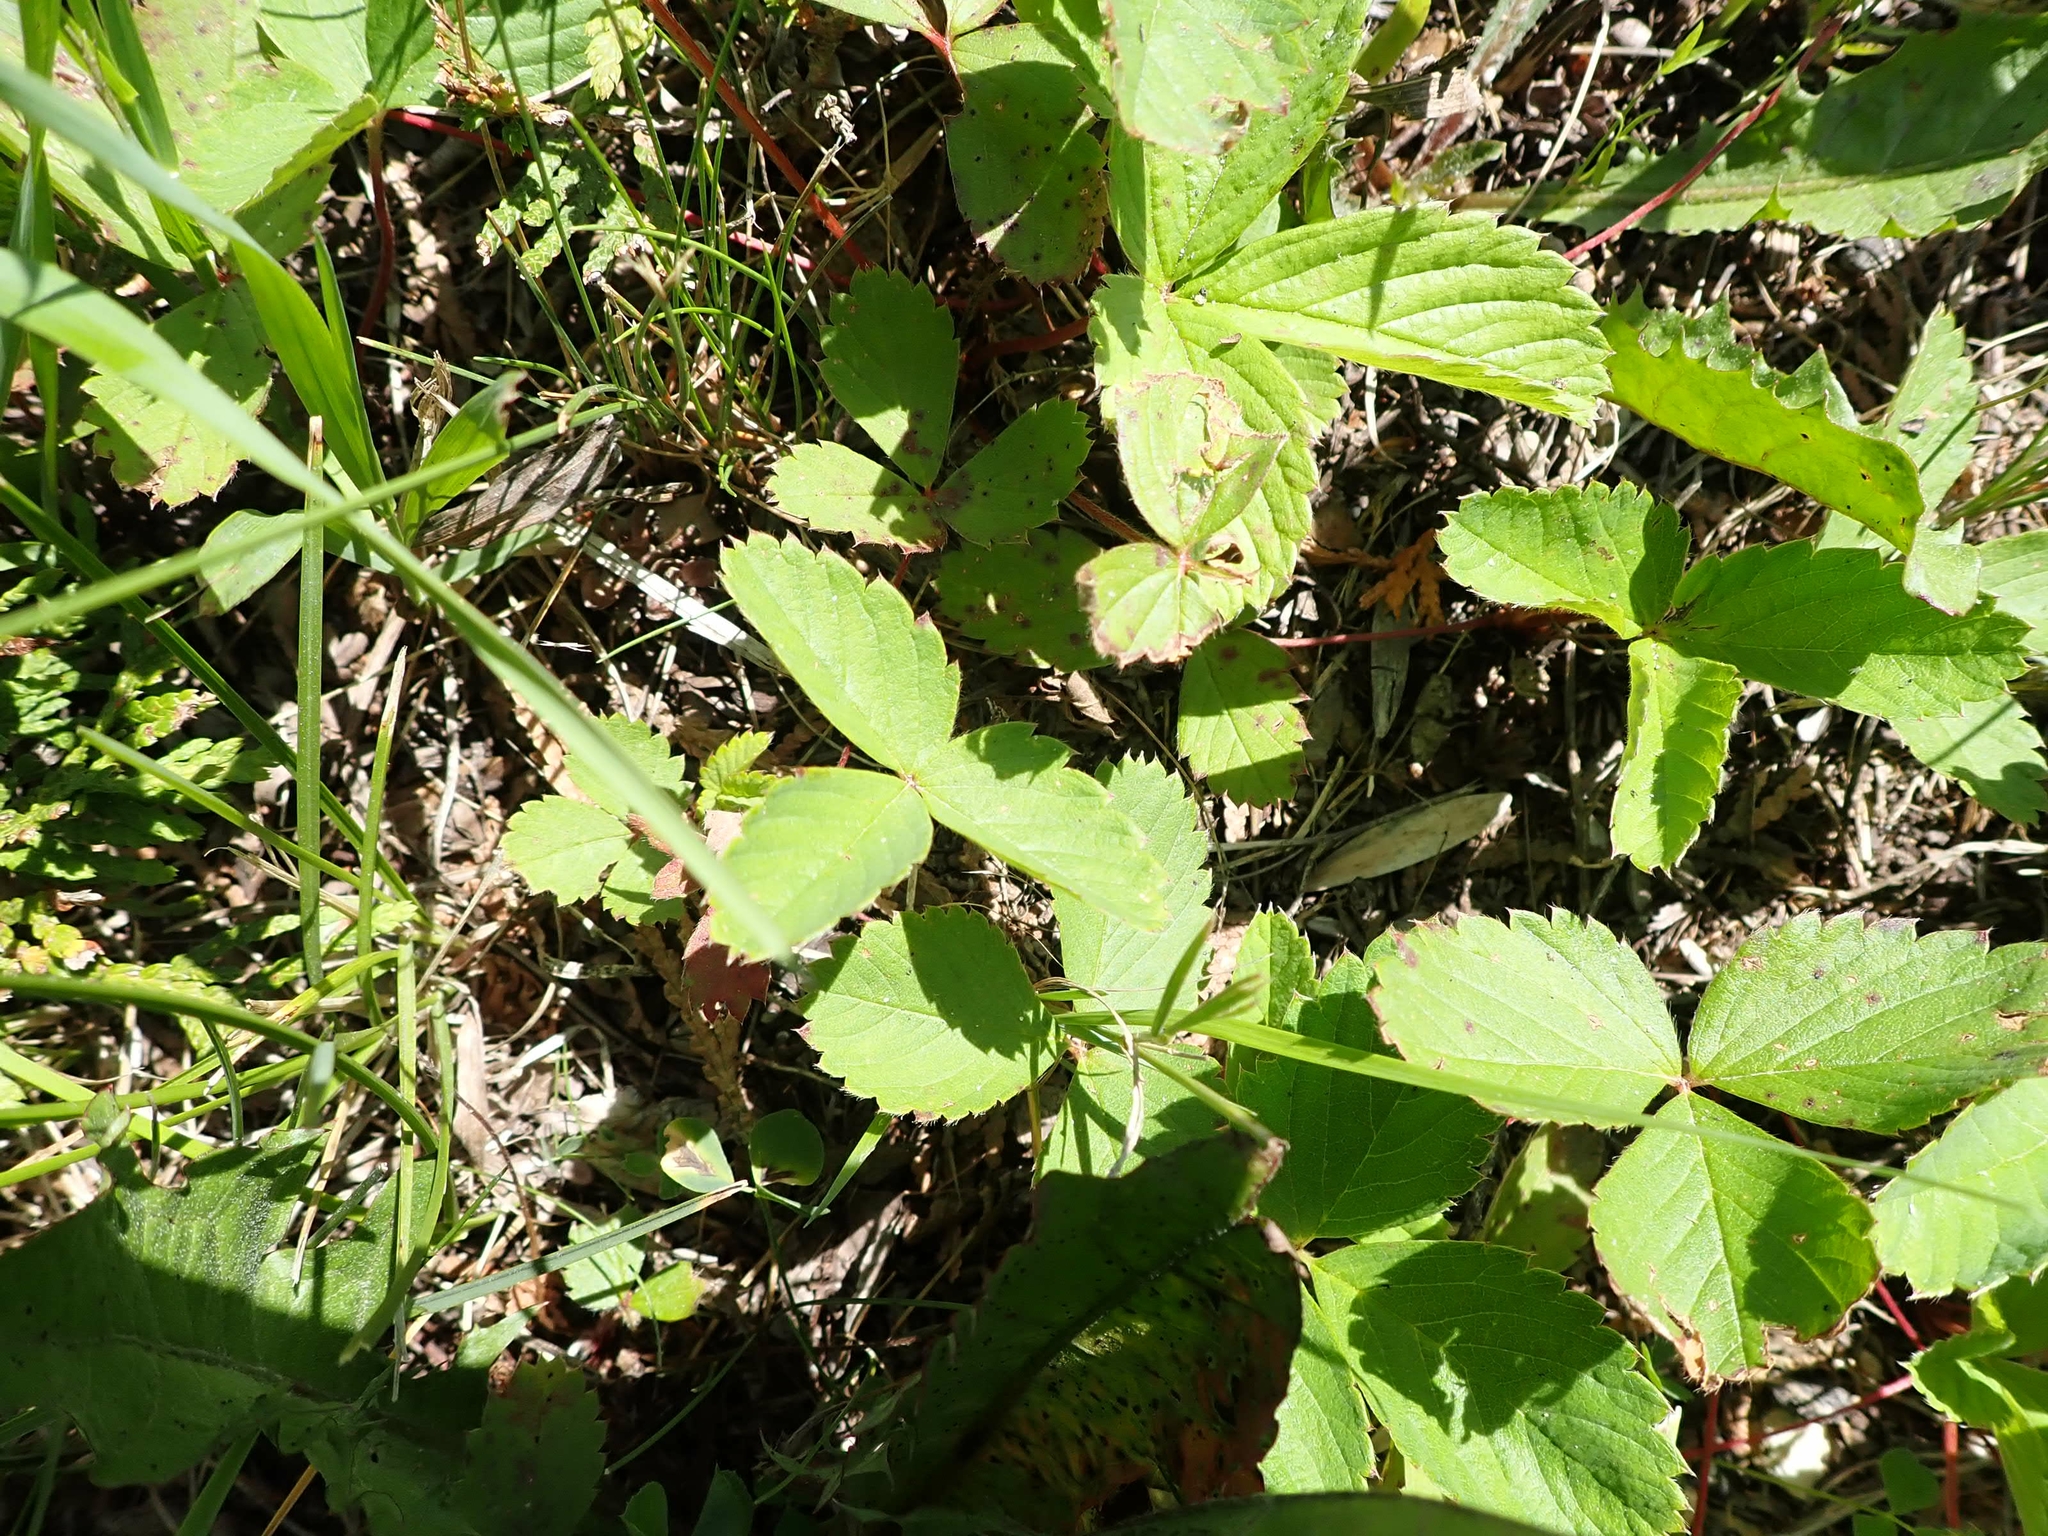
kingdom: Plantae
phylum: Tracheophyta
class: Magnoliopsida
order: Rosales
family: Rosaceae
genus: Fragaria
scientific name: Fragaria virginiana
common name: Thickleaved wild strawberry
